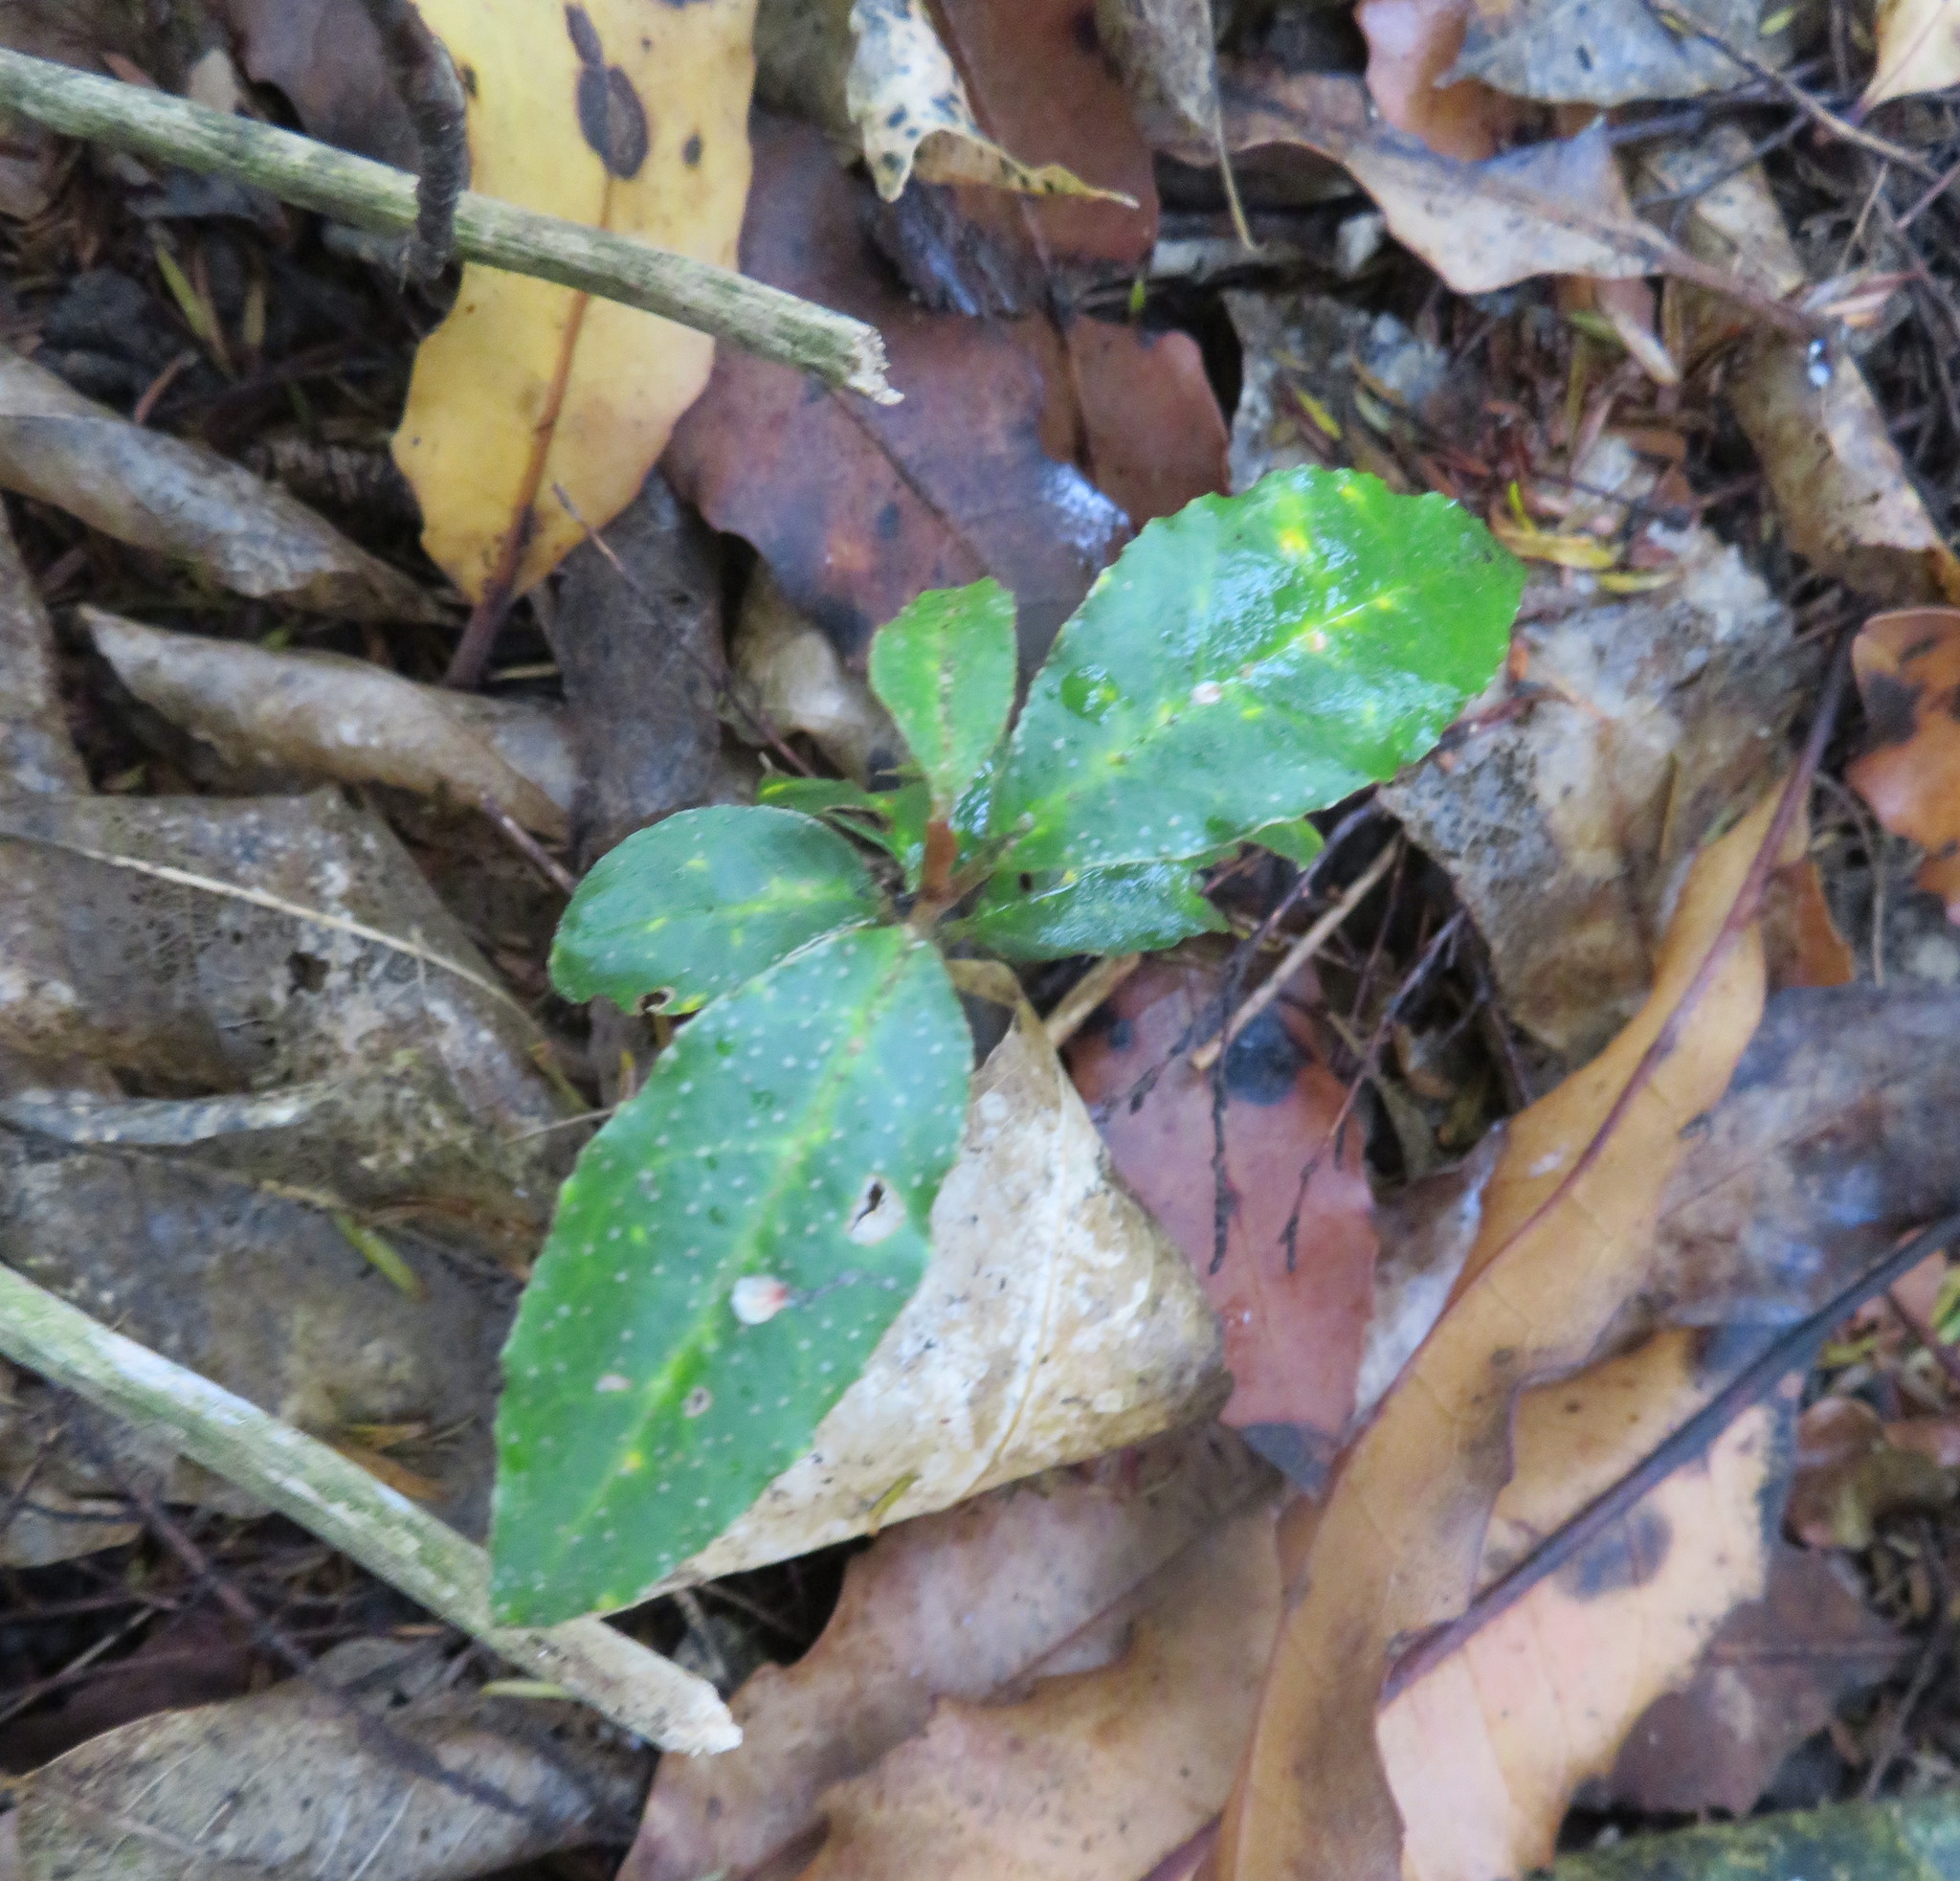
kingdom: Plantae
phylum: Tracheophyta
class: Magnoliopsida
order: Rosales
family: Elaeagnaceae
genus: Elaeagnus
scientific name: Elaeagnus reflexa
